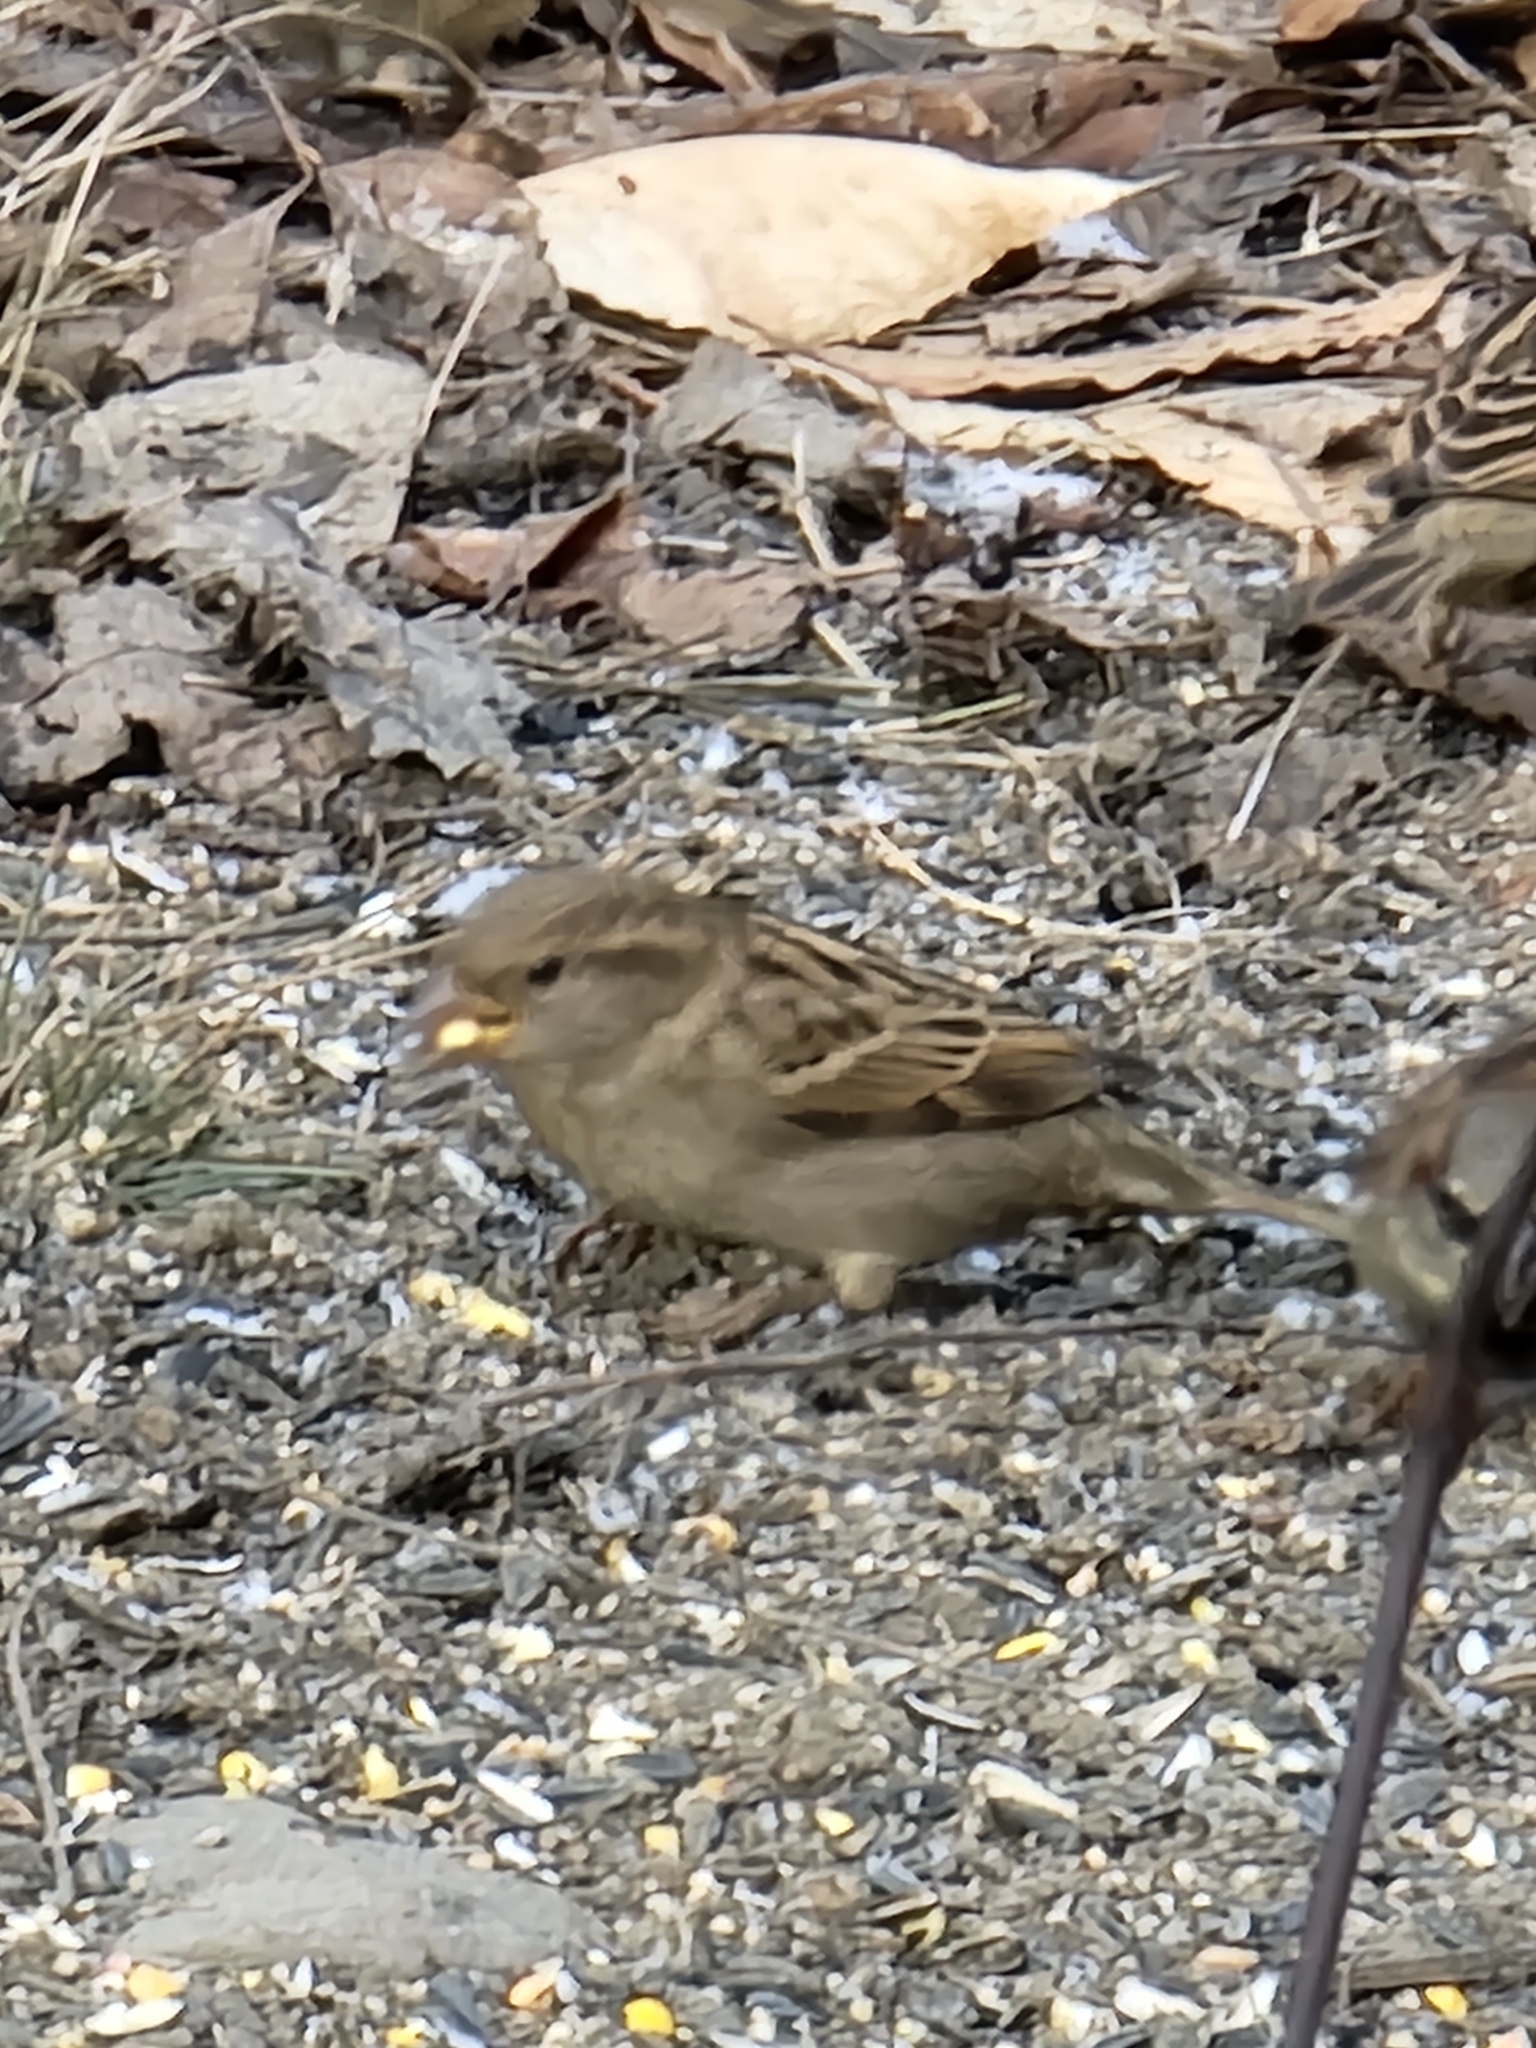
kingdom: Animalia
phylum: Chordata
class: Aves
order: Passeriformes
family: Passeridae
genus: Passer
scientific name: Passer domesticus
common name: House sparrow
